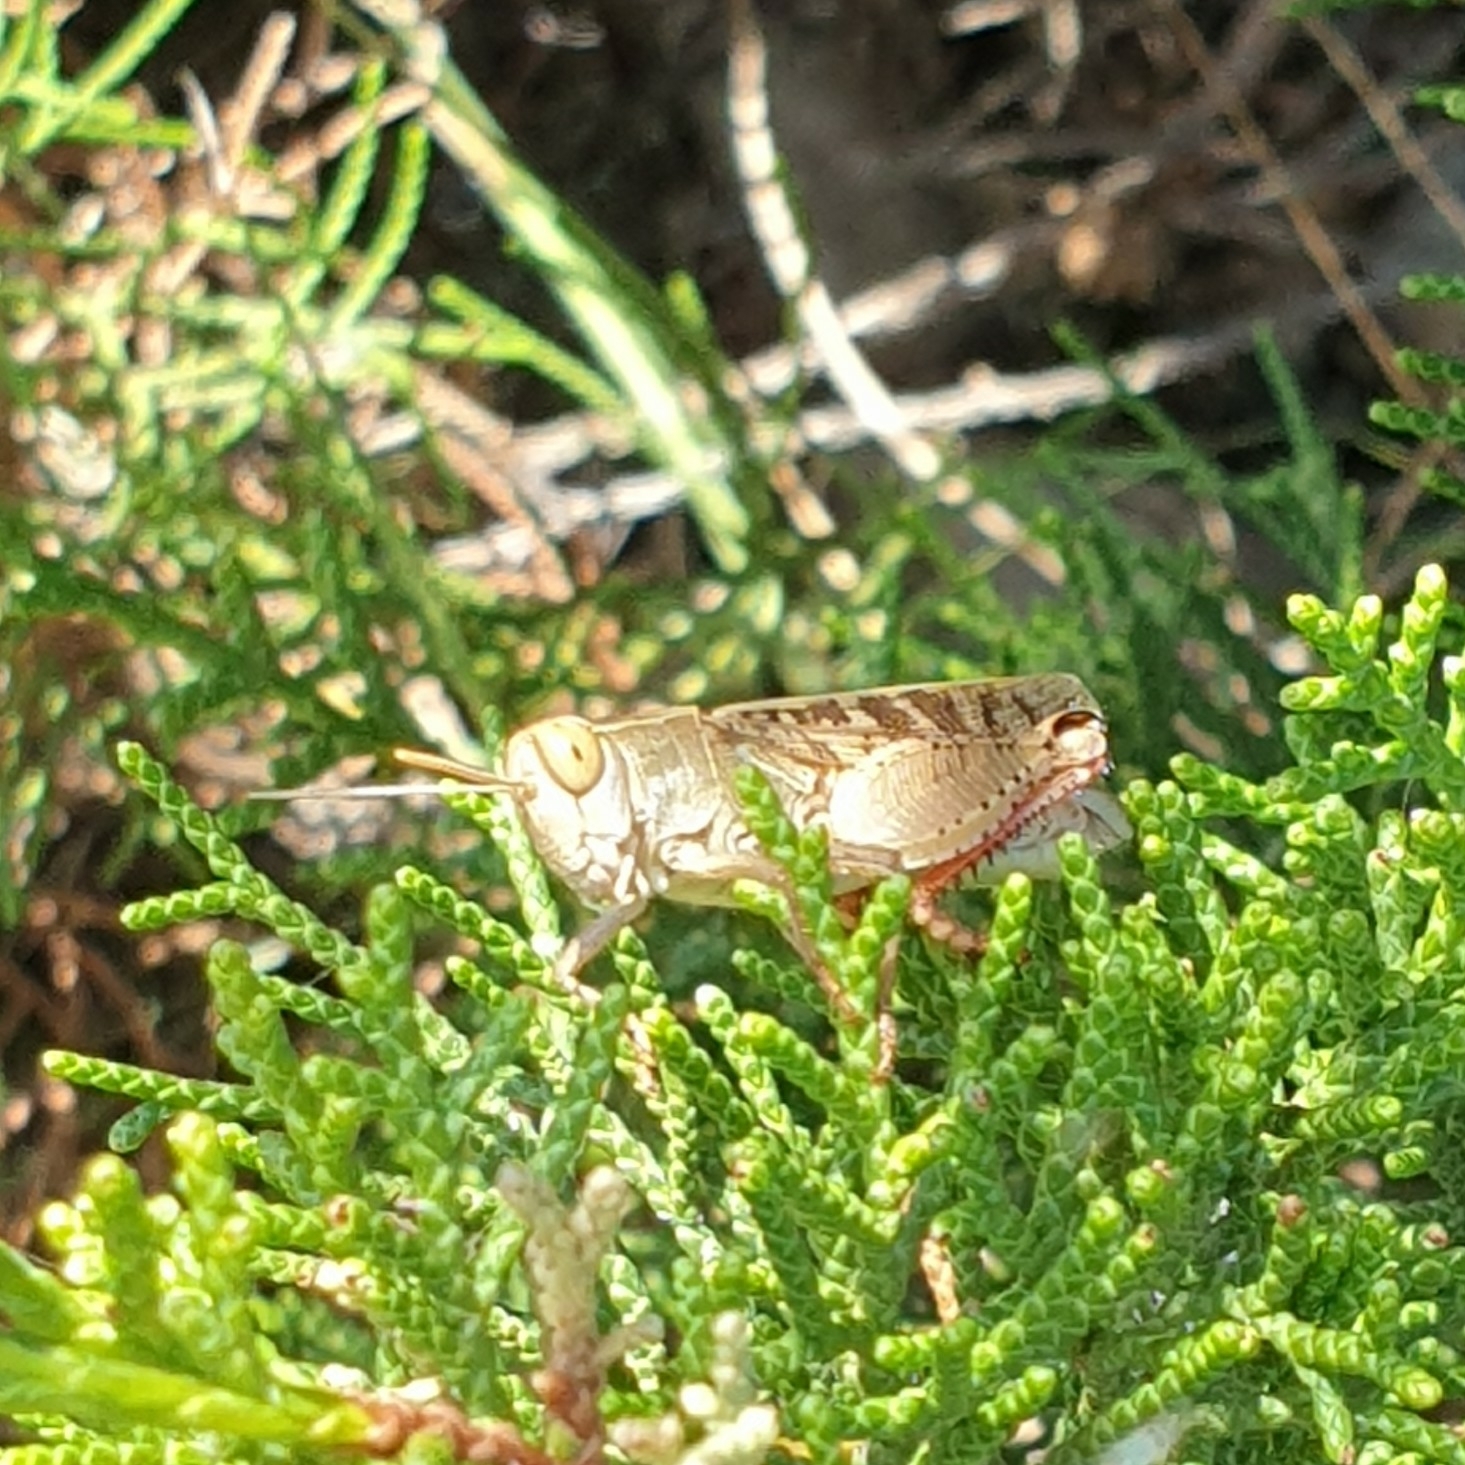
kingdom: Animalia
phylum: Arthropoda
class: Insecta
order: Orthoptera
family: Acrididae
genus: Calliptamus
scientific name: Calliptamus italicus
